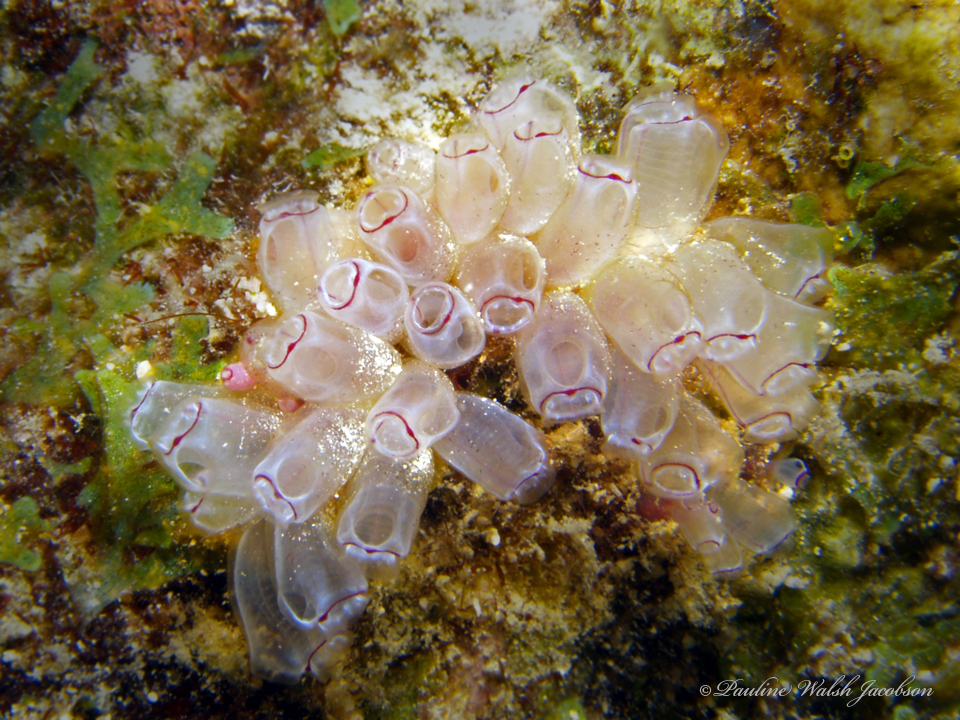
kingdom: Animalia
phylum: Chordata
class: Ascidiacea
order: Aplousobranchia
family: Clavelinidae
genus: Clavelina
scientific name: Clavelina picta
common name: Painted tunicate
